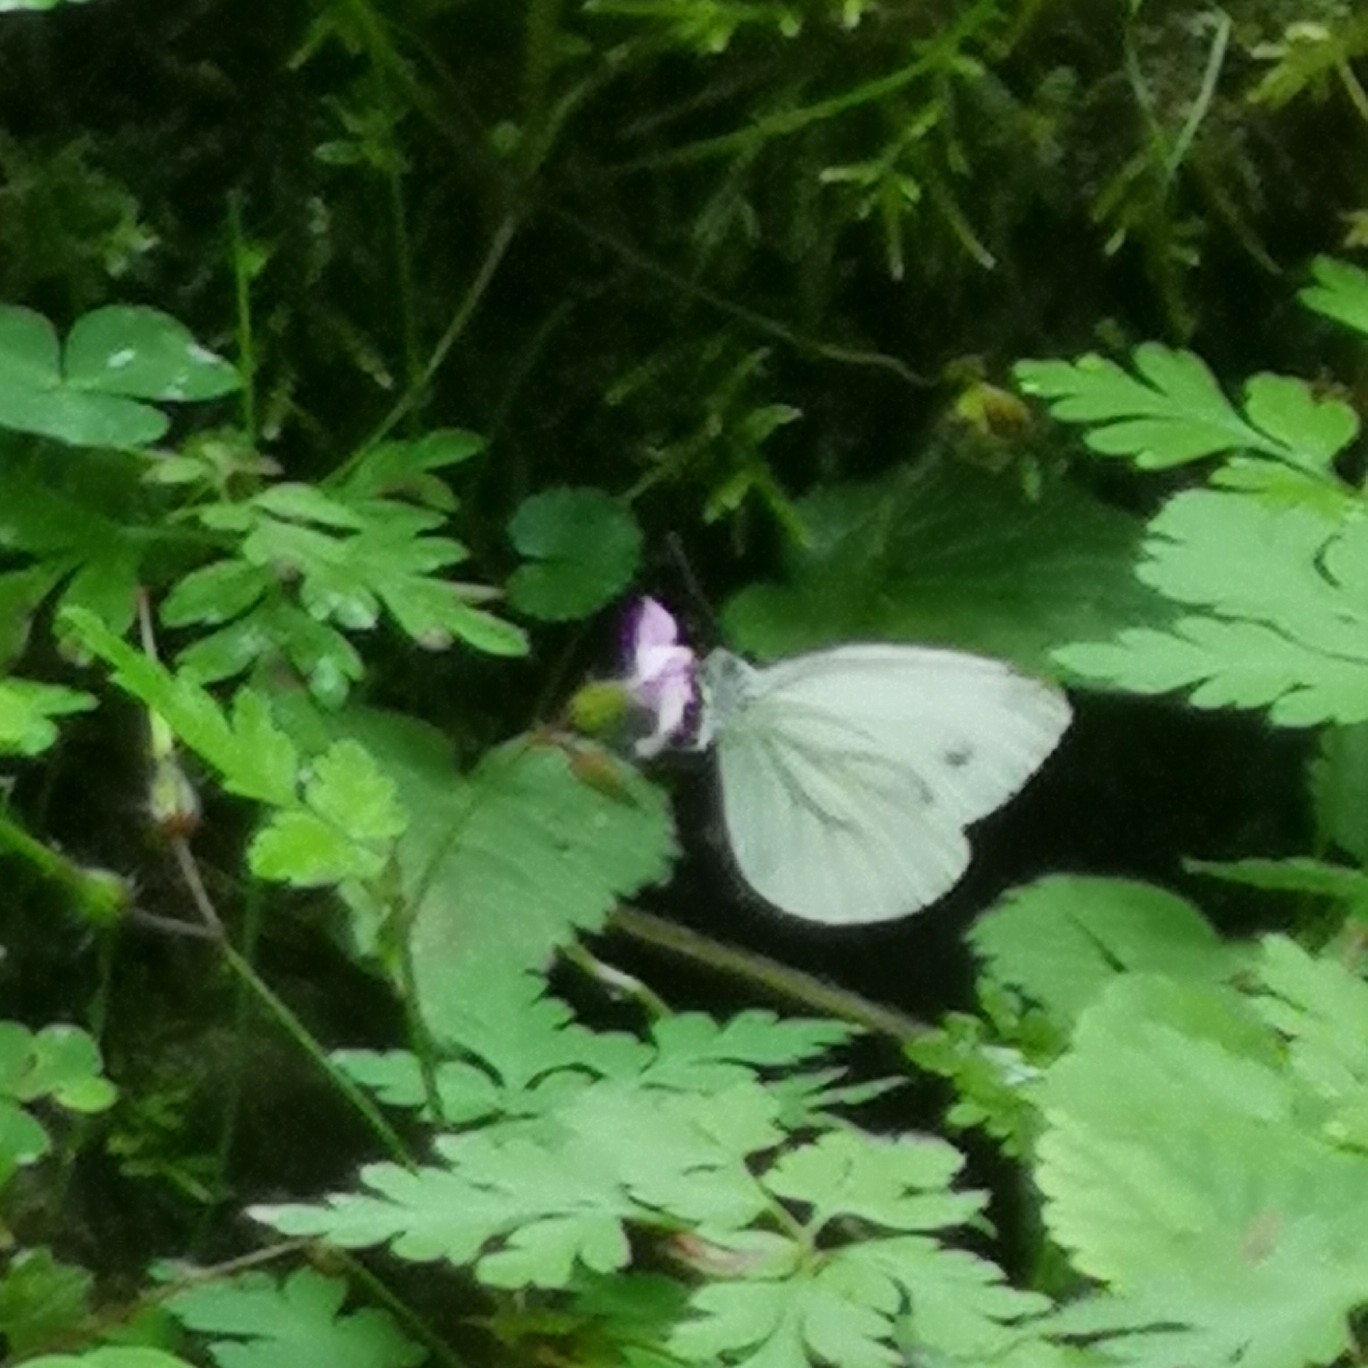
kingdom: Animalia
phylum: Arthropoda
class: Insecta
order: Lepidoptera
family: Pieridae
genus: Pieris
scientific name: Pieris napi
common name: Green-veined white
